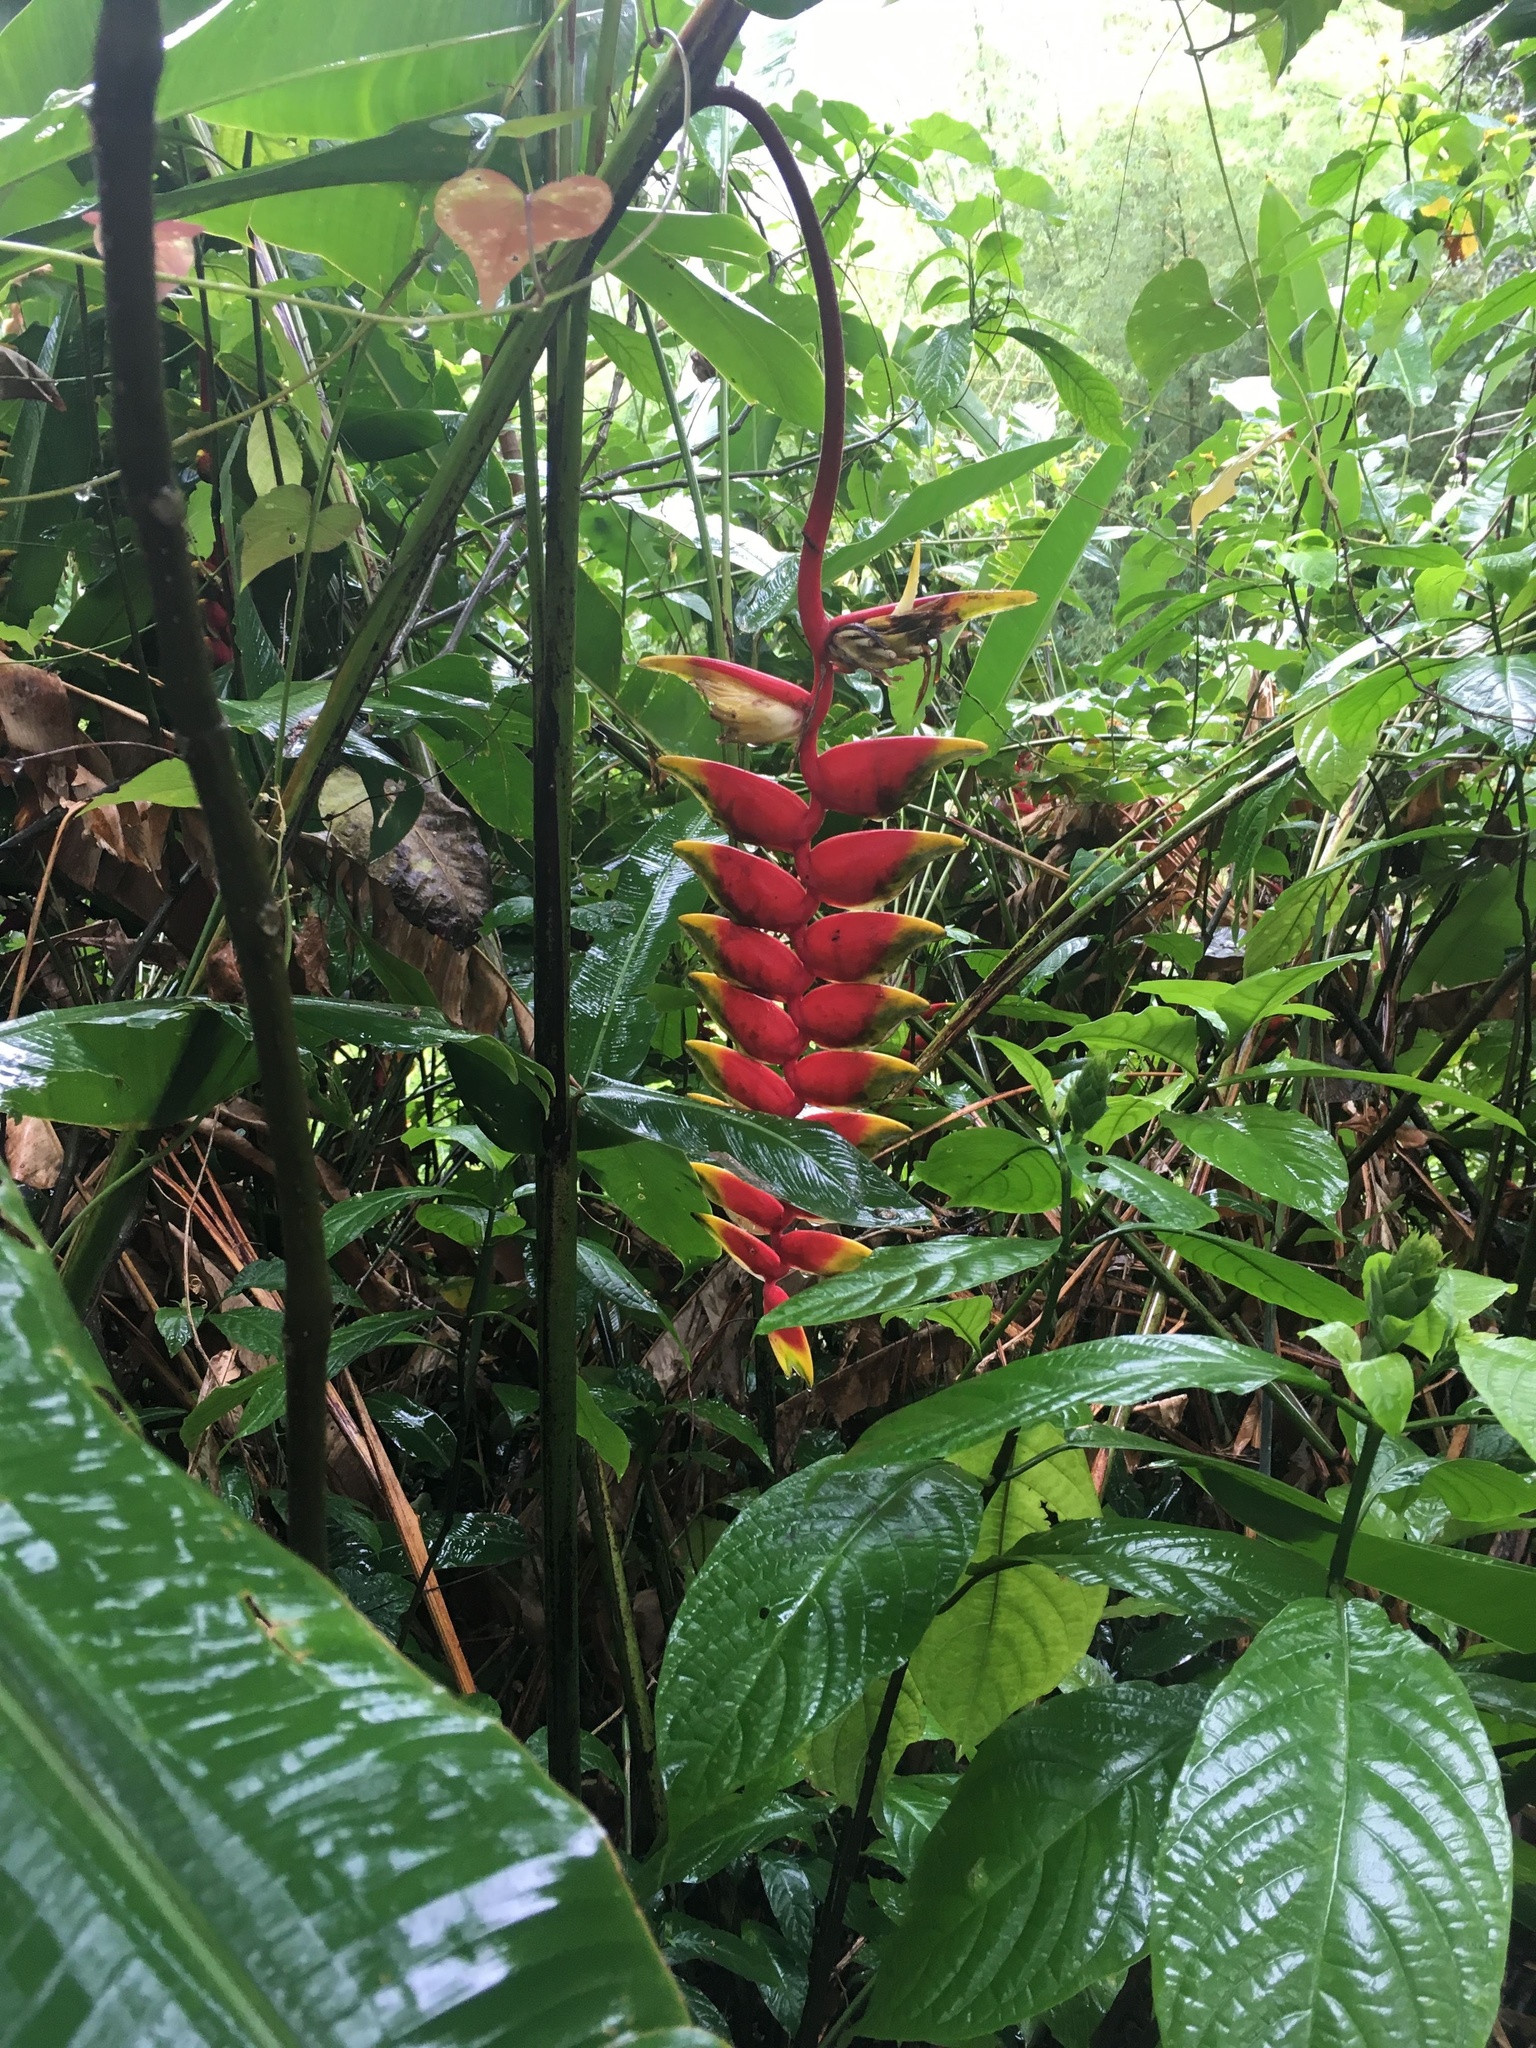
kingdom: Plantae
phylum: Tracheophyta
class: Liliopsida
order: Zingiberales
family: Heliconiaceae
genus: Heliconia
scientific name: Heliconia rostrata
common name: False bird of paradise
